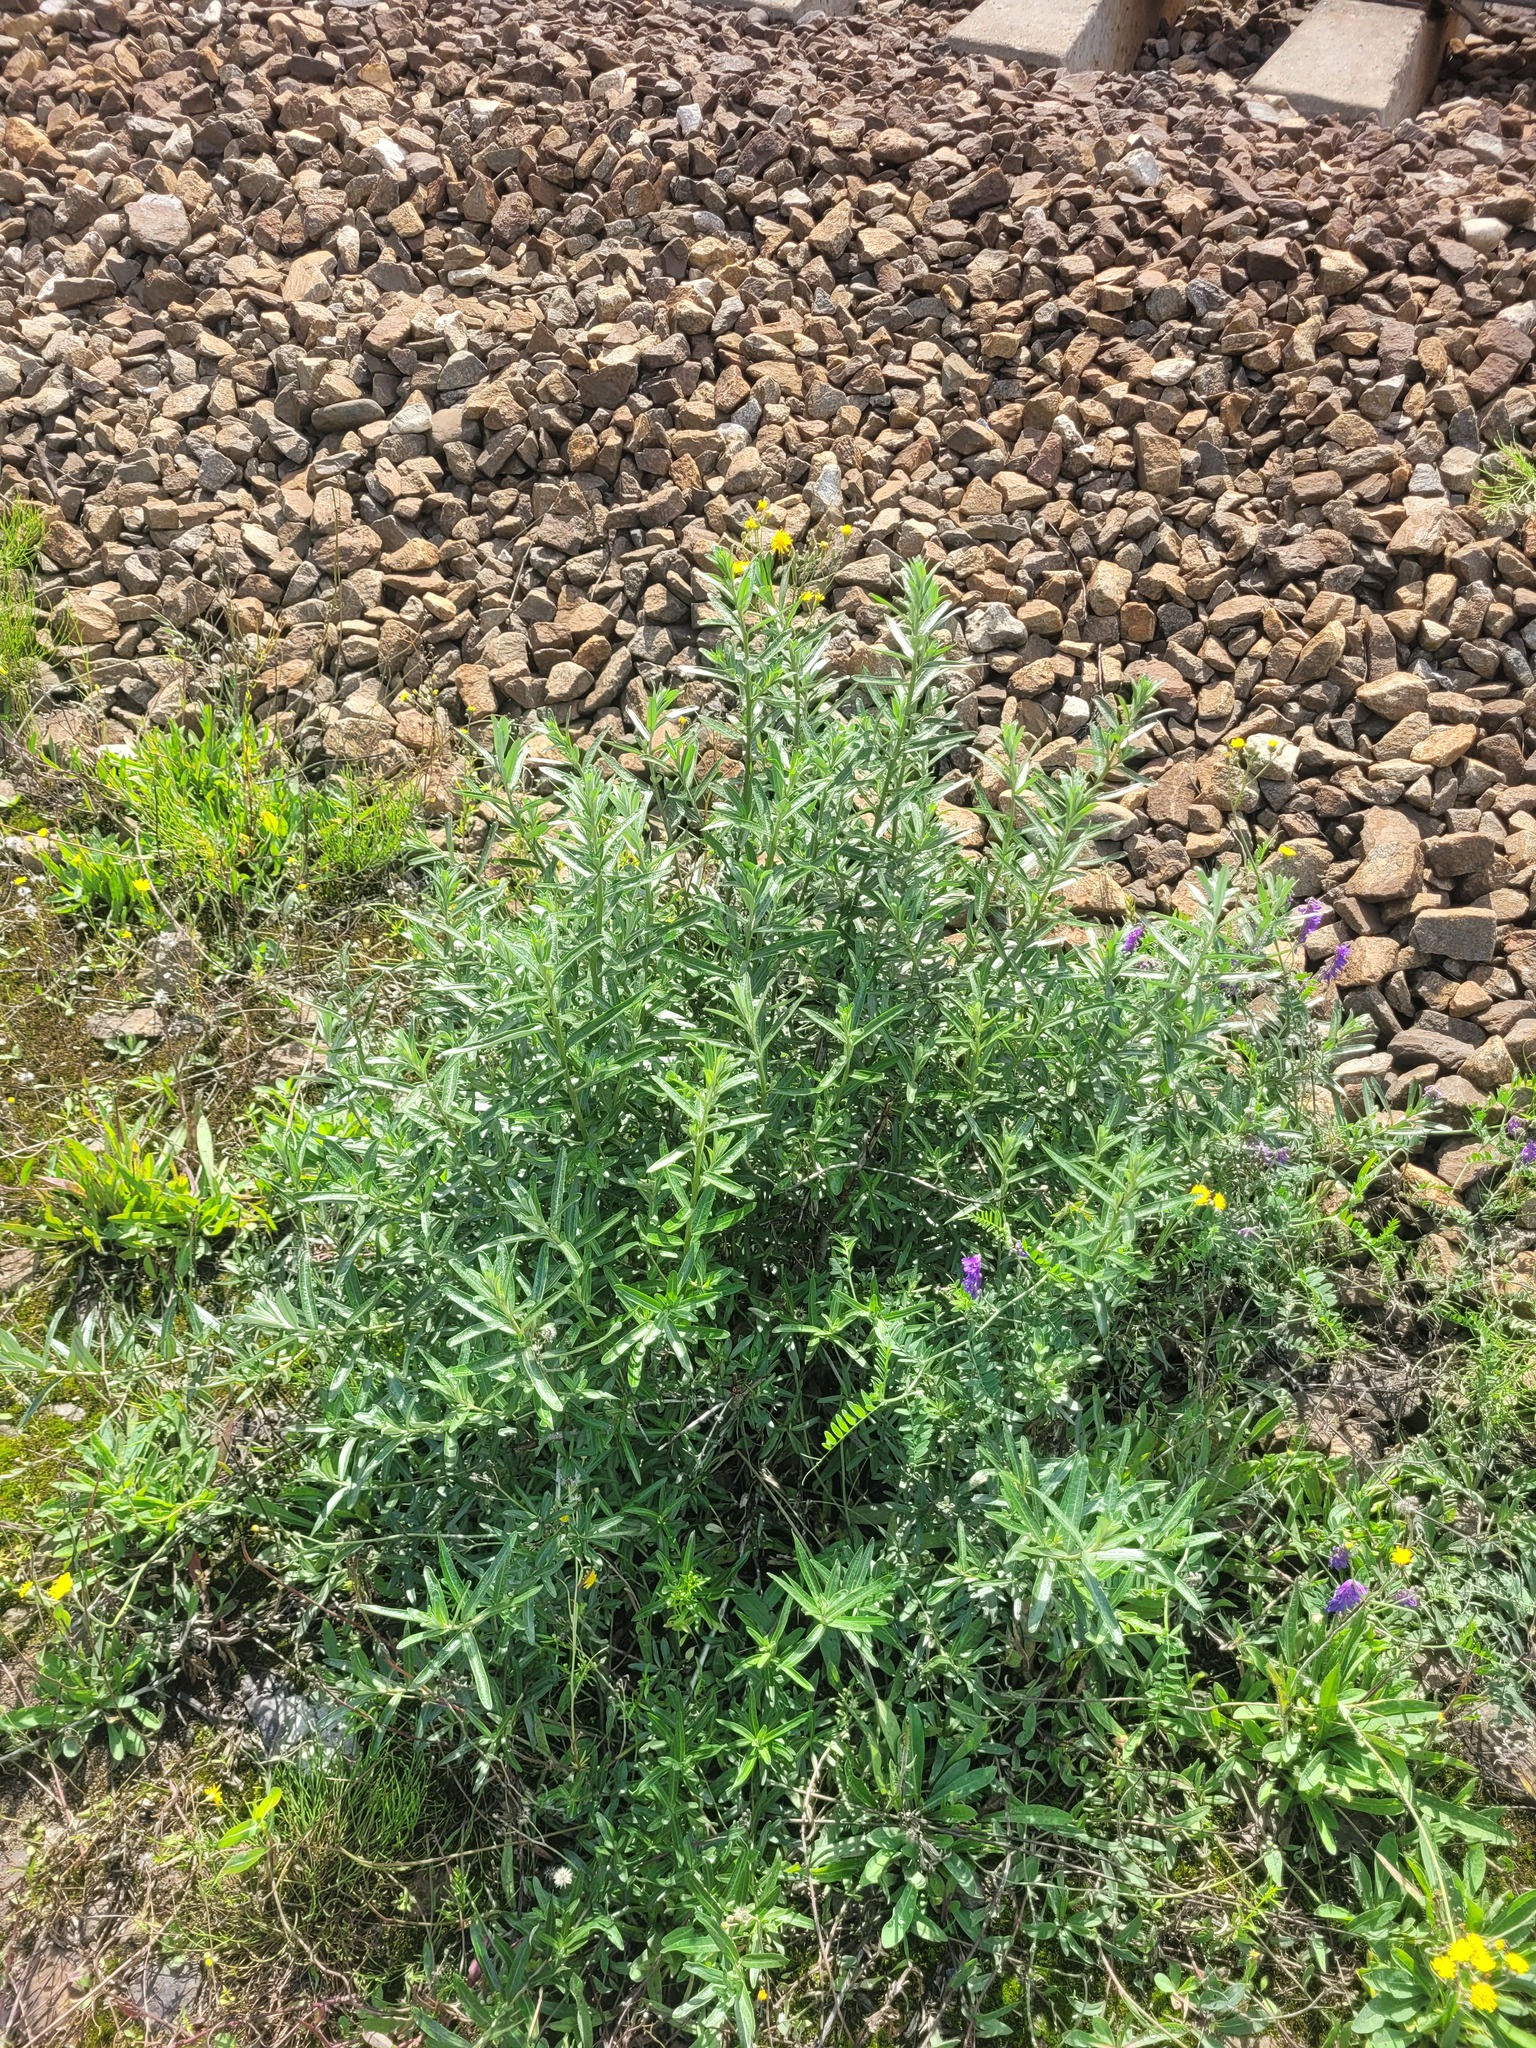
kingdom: Plantae
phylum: Tracheophyta
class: Magnoliopsida
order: Rosales
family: Elaeagnaceae
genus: Hippophae
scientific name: Hippophae rhamnoides
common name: Sea-buckthorn
